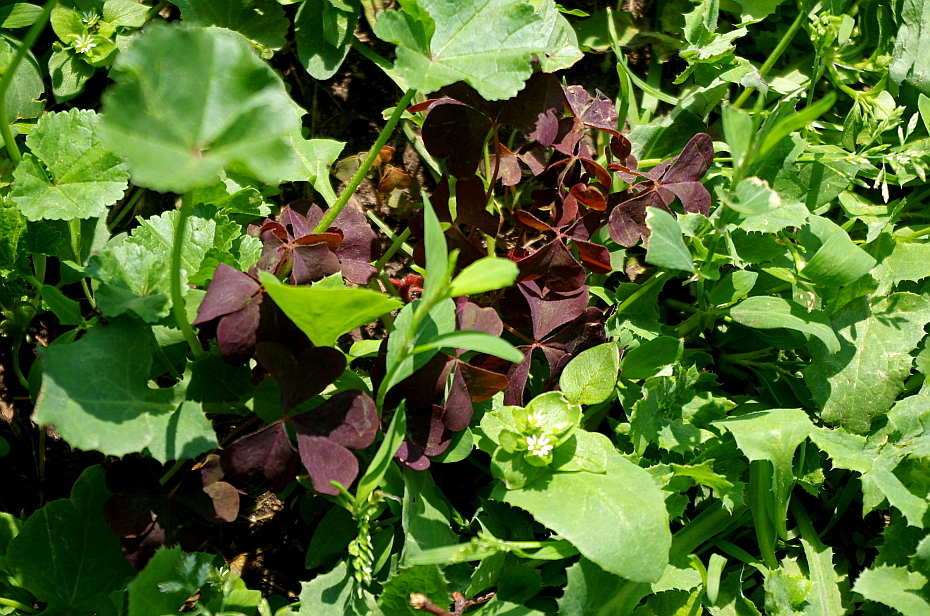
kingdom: Plantae
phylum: Tracheophyta
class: Magnoliopsida
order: Oxalidales
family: Oxalidaceae
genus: Oxalis
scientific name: Oxalis stricta
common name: Upright yellow-sorrel
